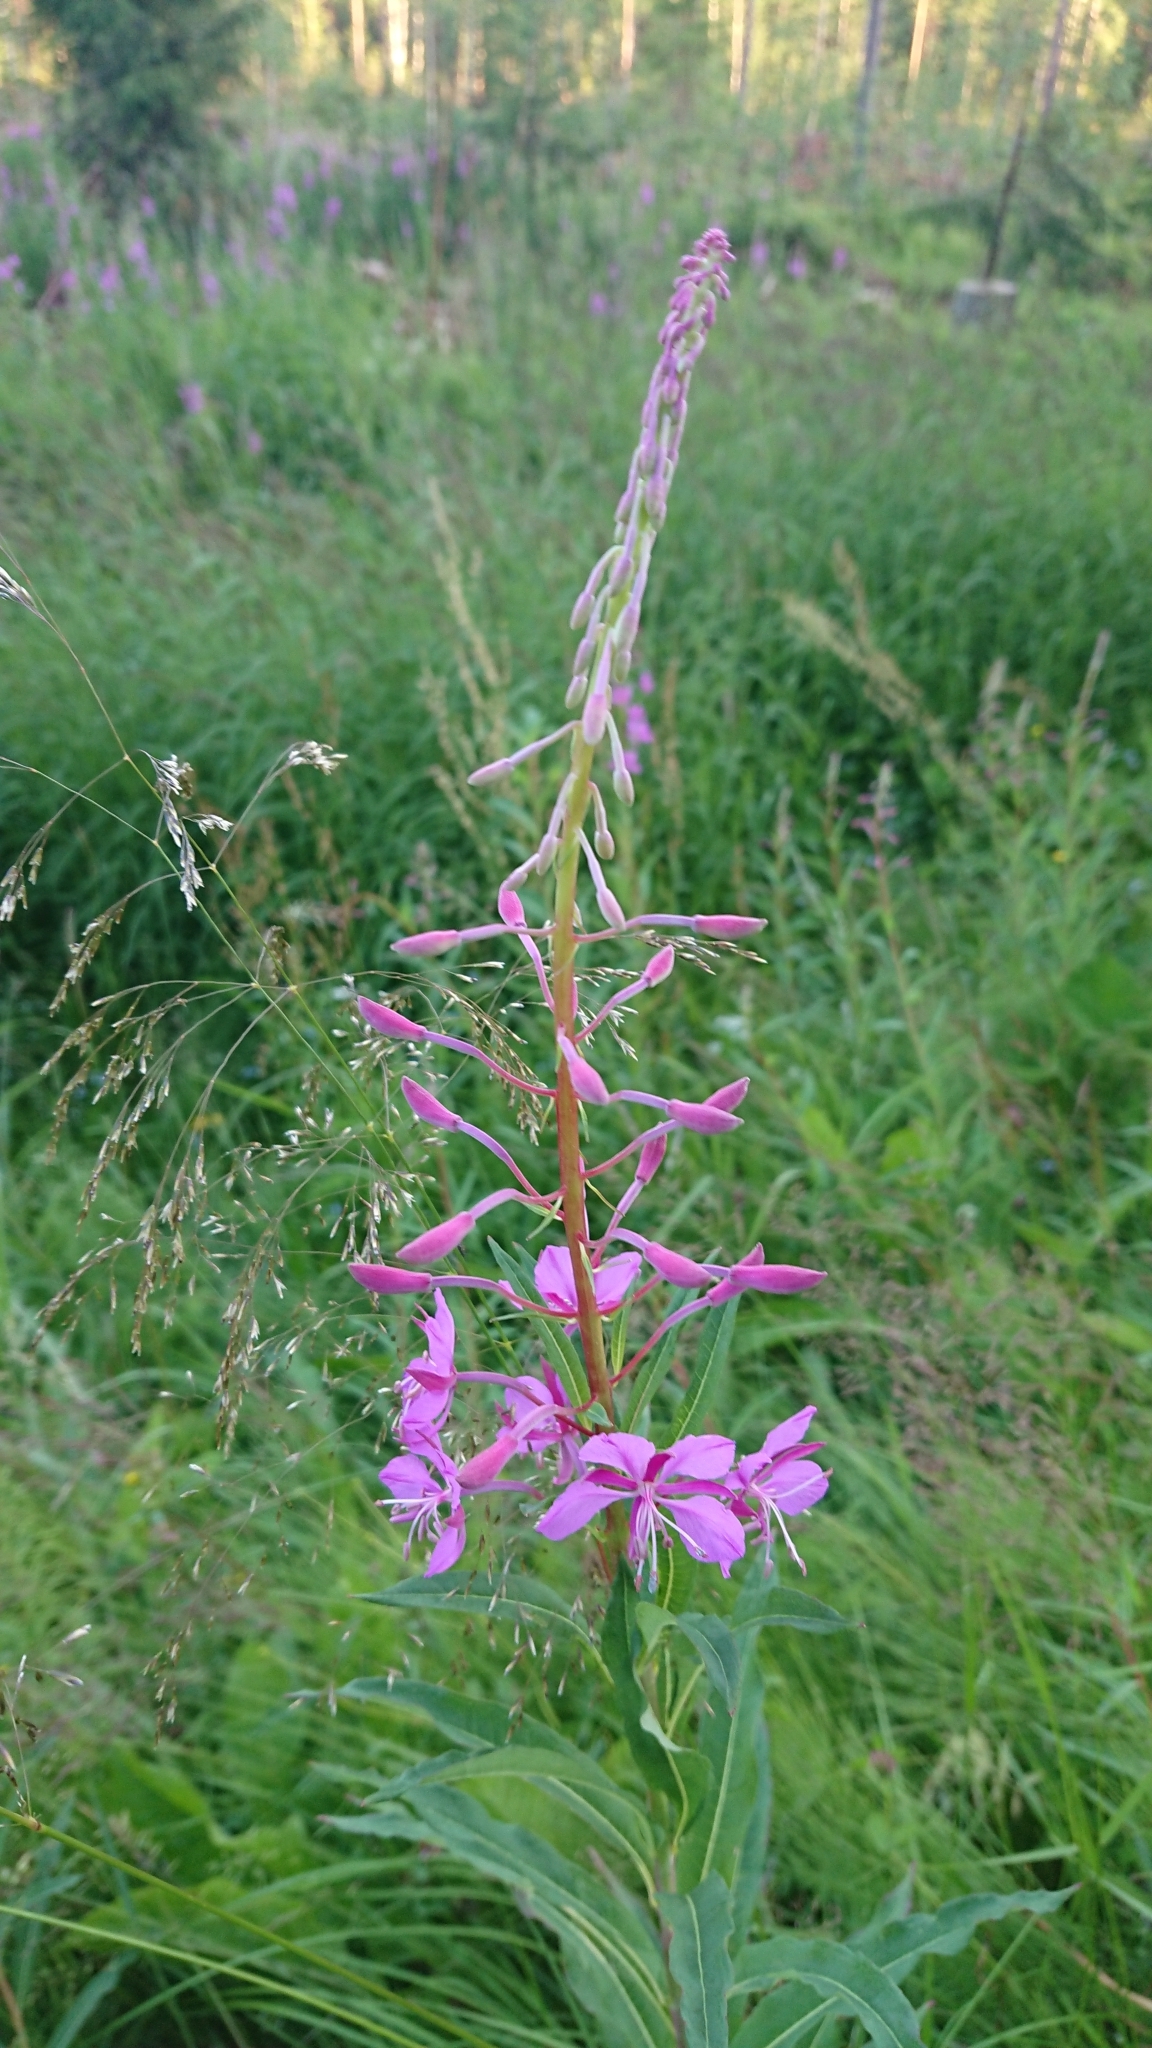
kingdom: Plantae
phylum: Tracheophyta
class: Magnoliopsida
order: Myrtales
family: Onagraceae
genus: Chamaenerion
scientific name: Chamaenerion angustifolium
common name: Fireweed
